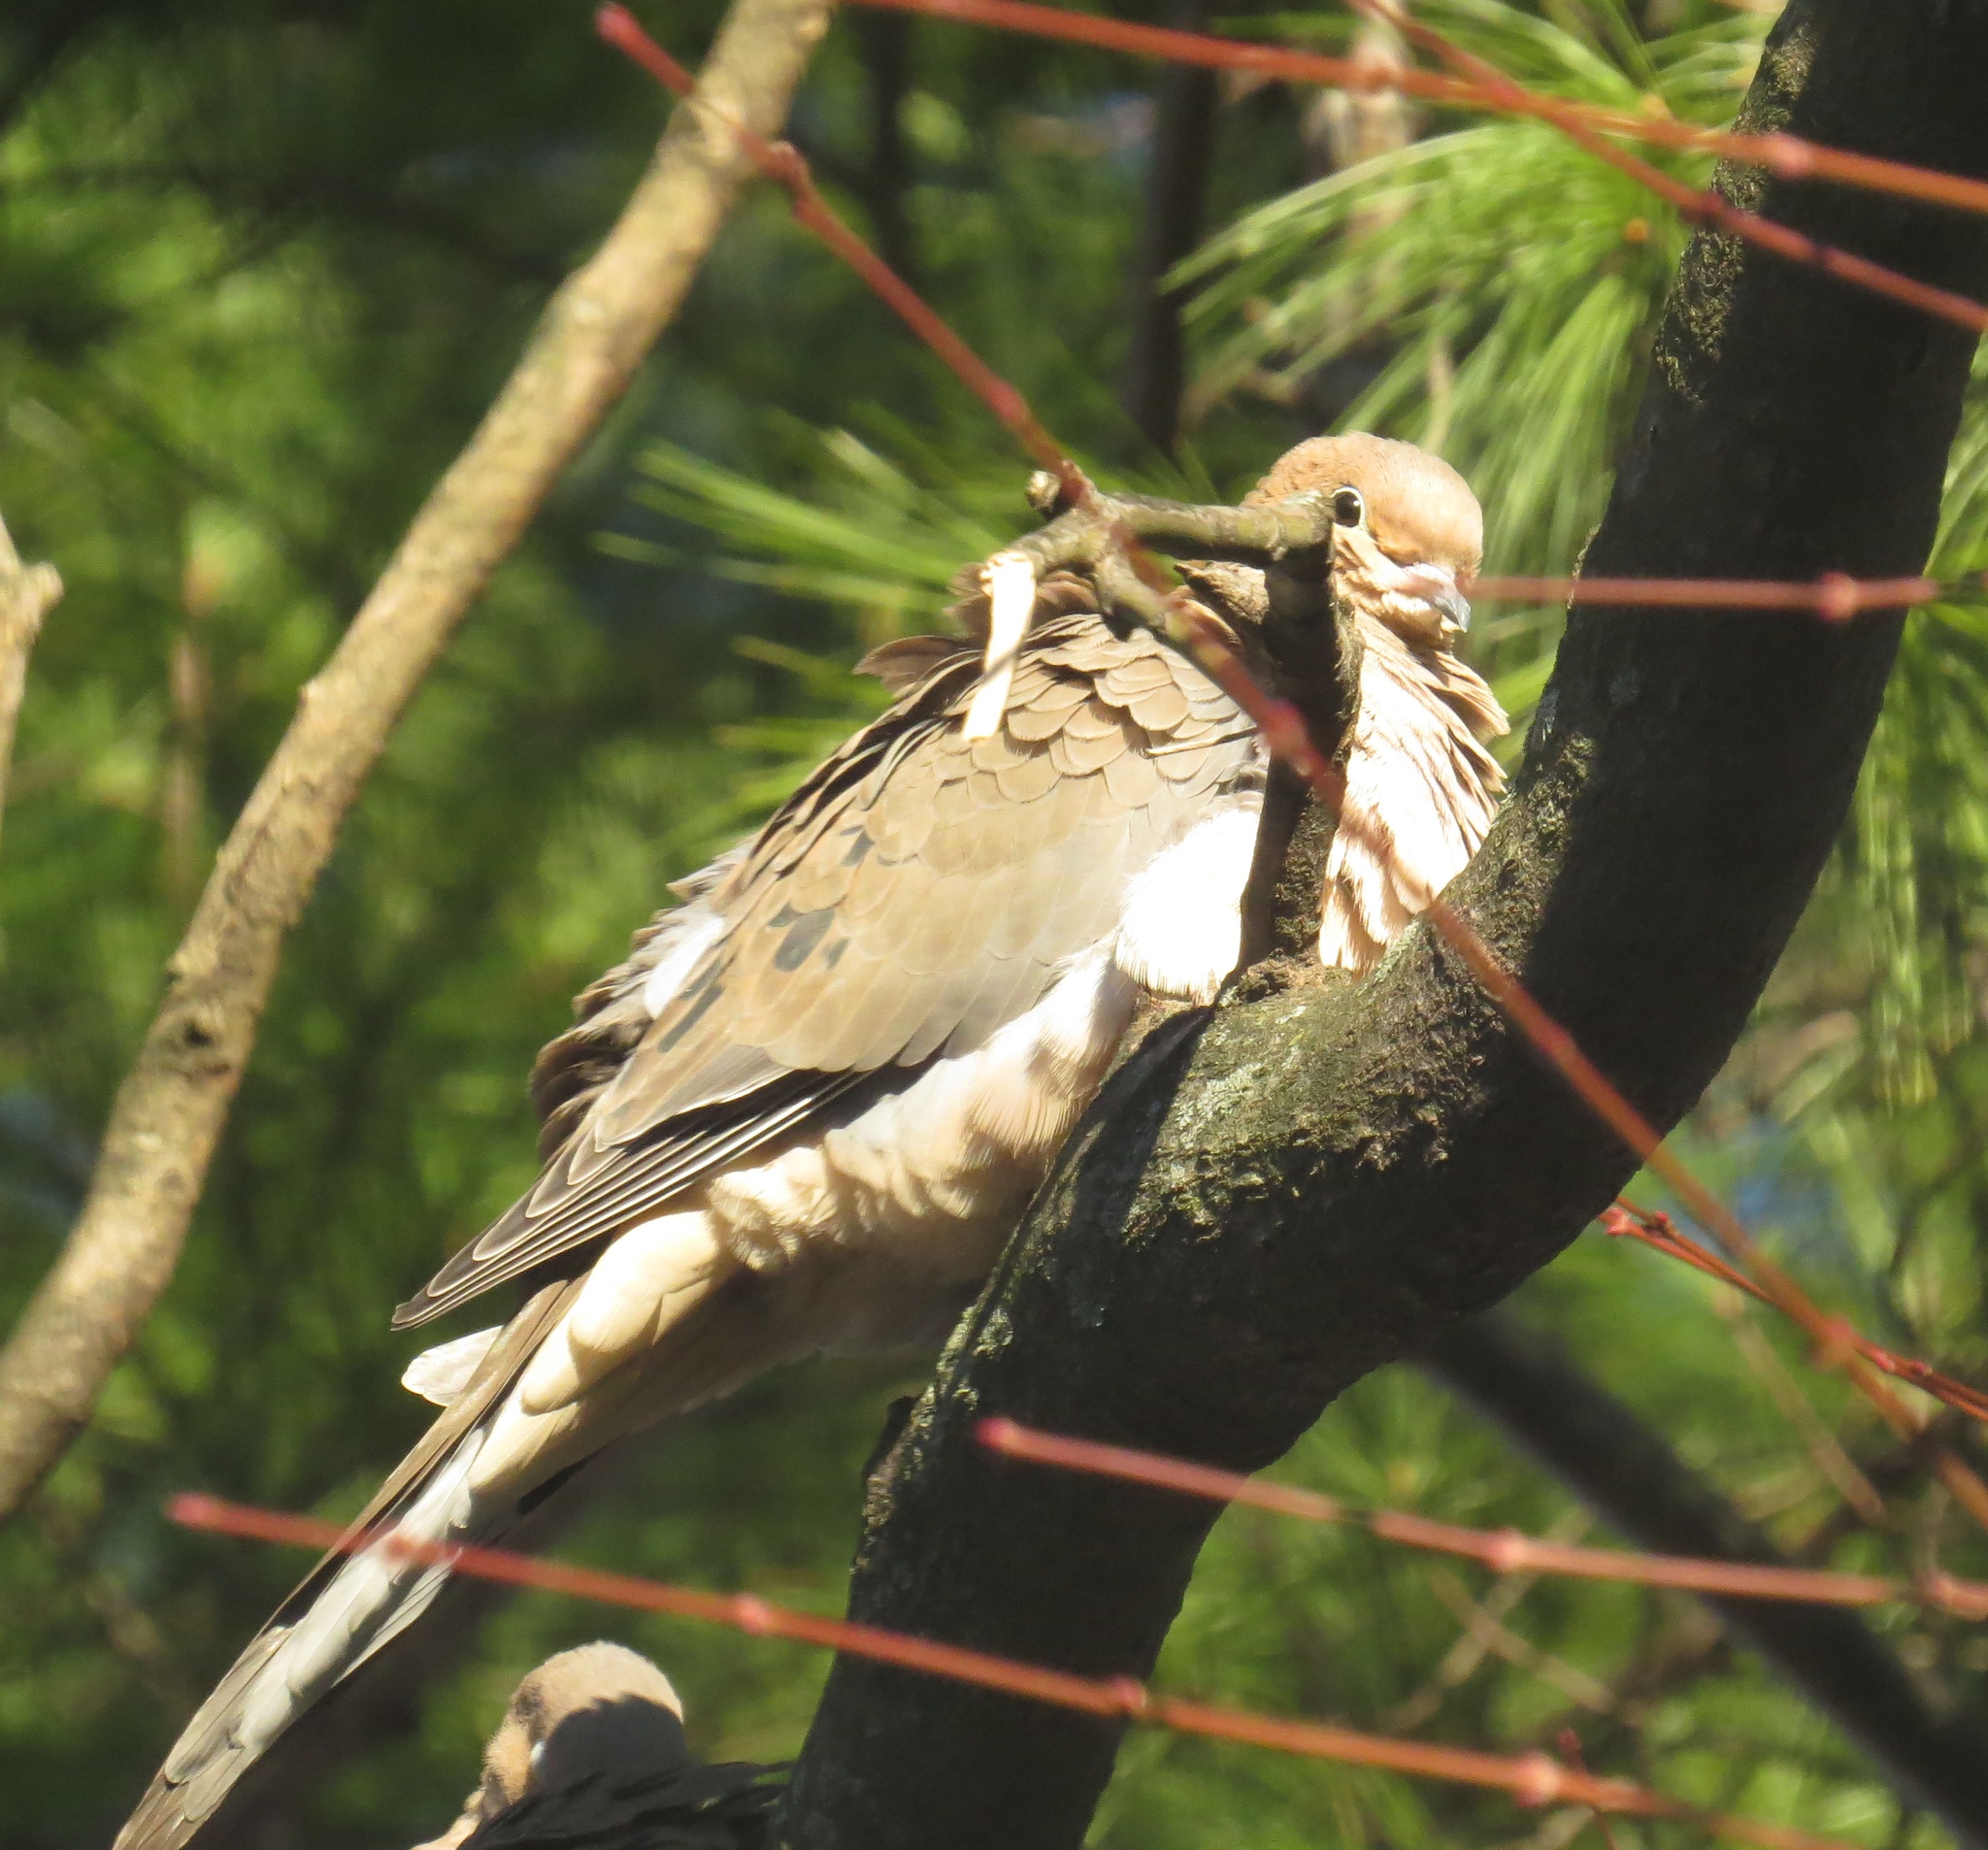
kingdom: Animalia
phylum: Chordata
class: Aves
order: Columbiformes
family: Columbidae
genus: Zenaida
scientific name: Zenaida macroura
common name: Mourning dove
